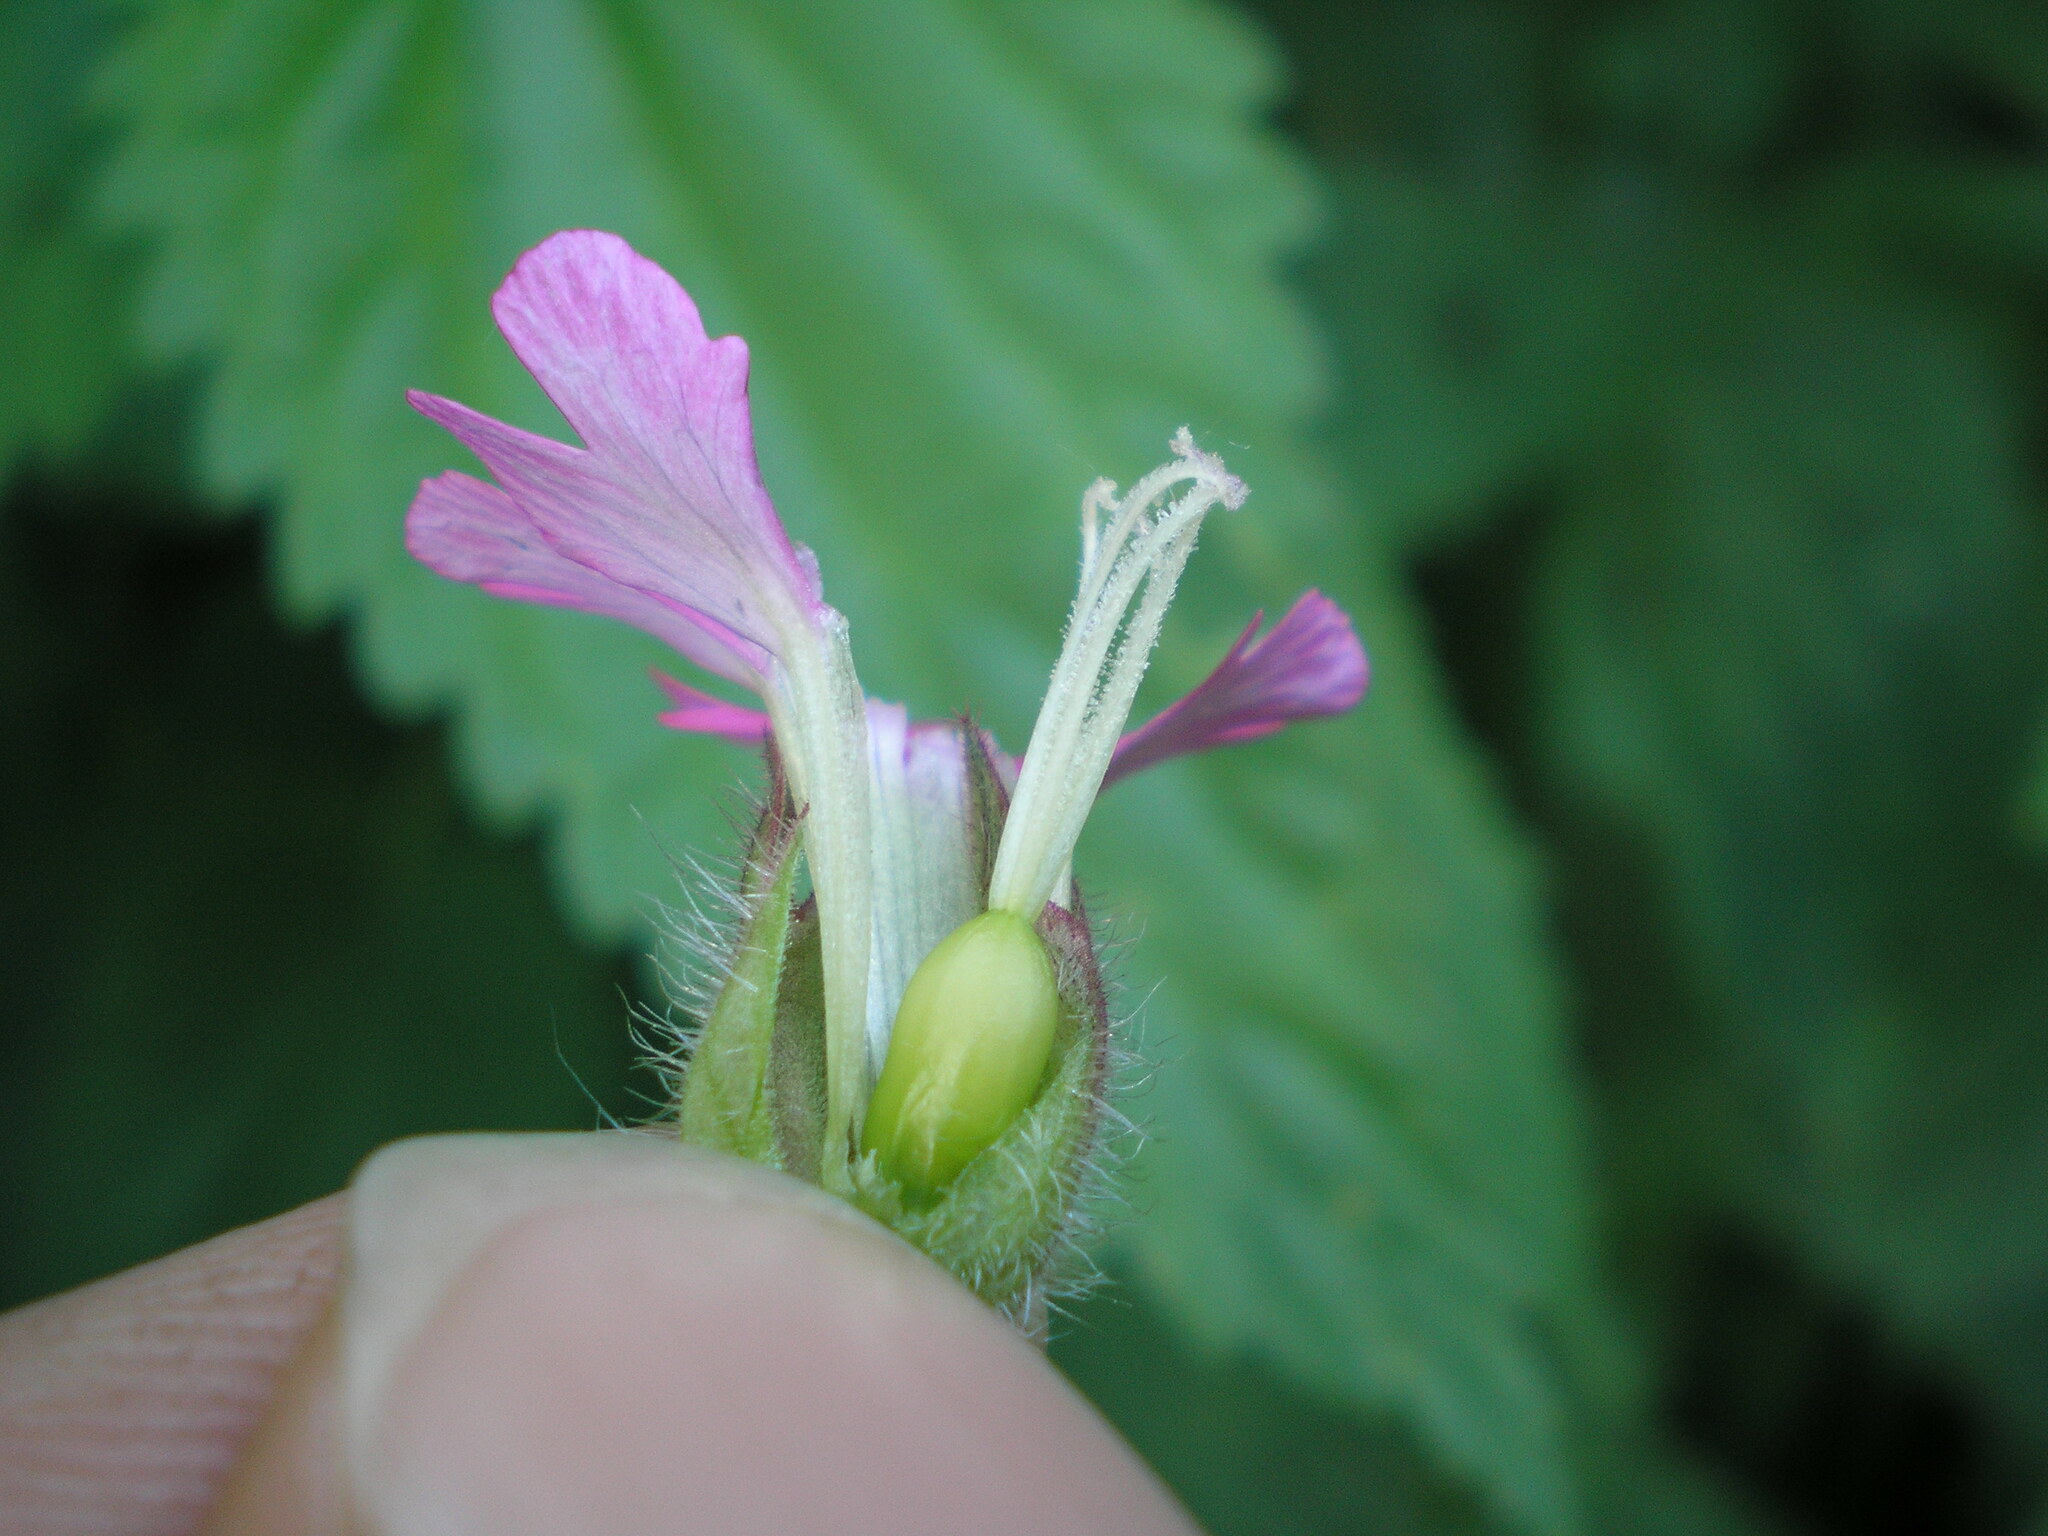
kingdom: Plantae
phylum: Tracheophyta
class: Magnoliopsida
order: Caryophyllales
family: Caryophyllaceae
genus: Silene
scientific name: Silene dioica
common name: Red campion
